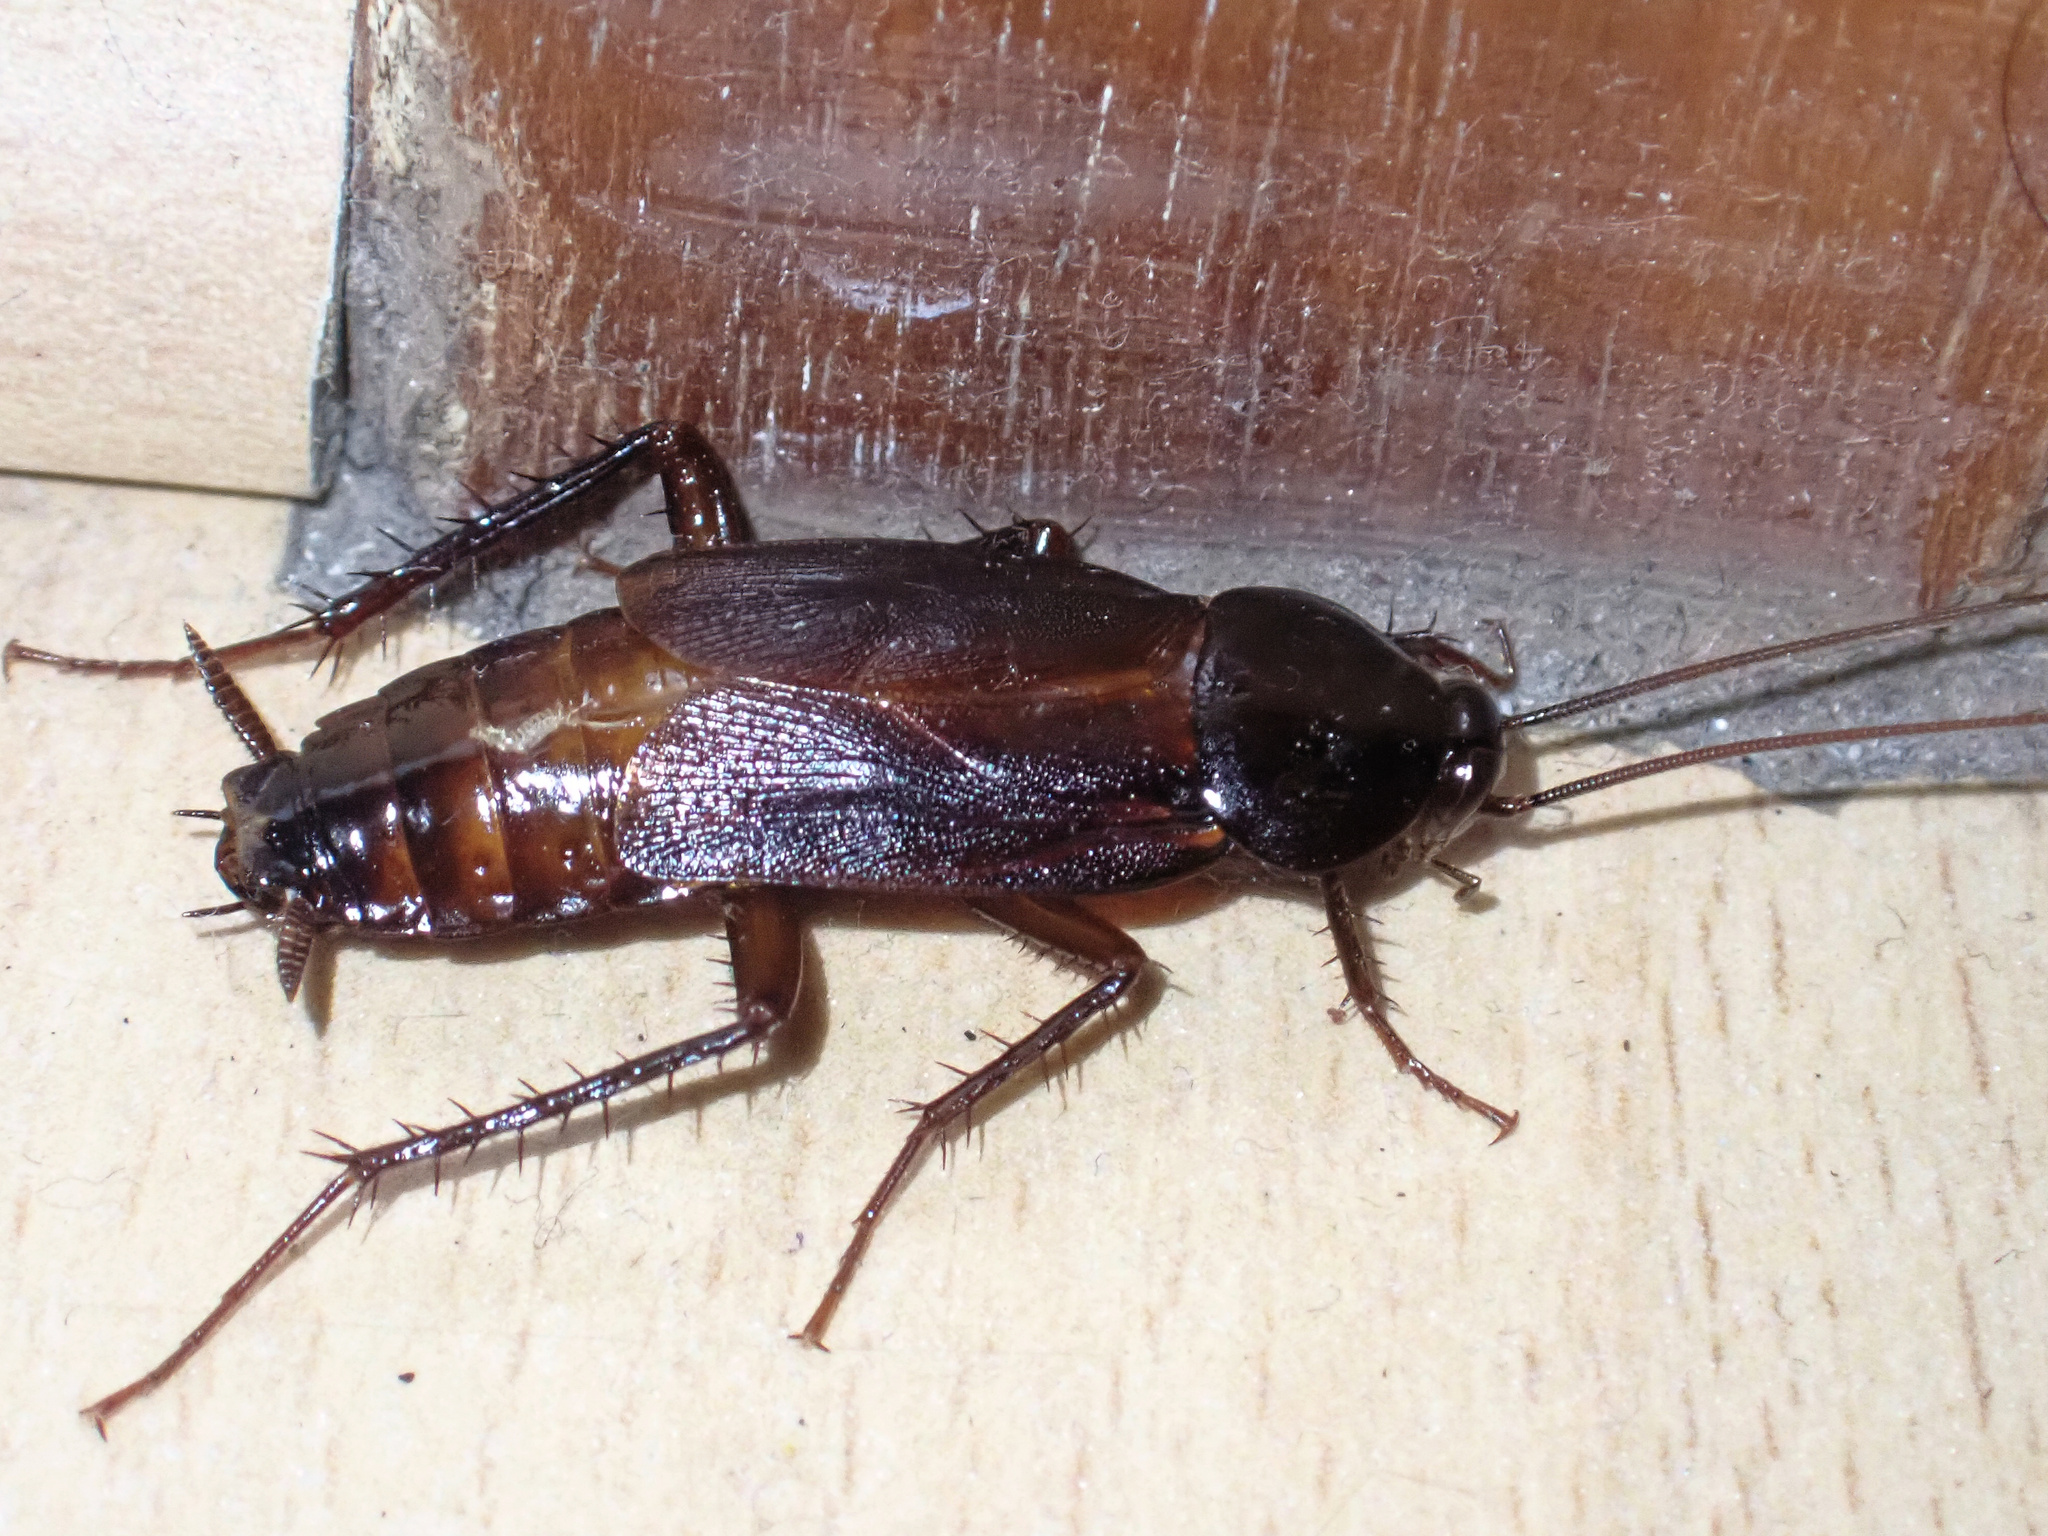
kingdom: Animalia
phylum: Arthropoda
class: Insecta
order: Blattodea
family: Blattidae
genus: Blatta
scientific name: Blatta orientalis
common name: Oriental cockroach
